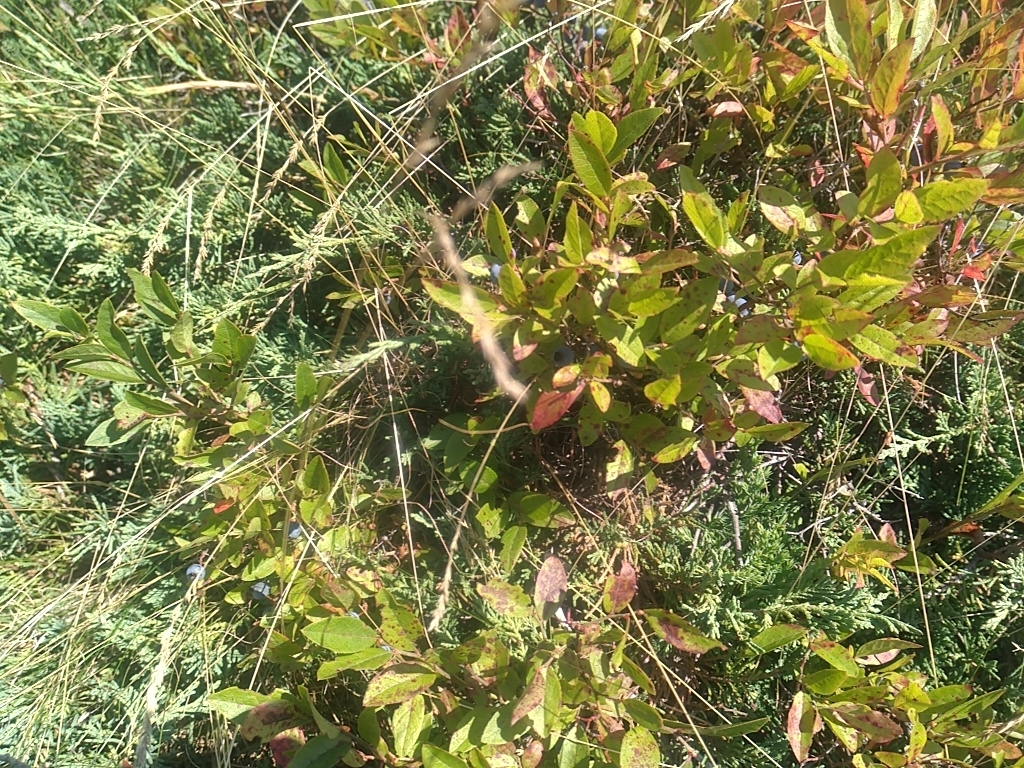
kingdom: Plantae
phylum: Tracheophyta
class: Magnoliopsida
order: Ericales
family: Ericaceae
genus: Vaccinium
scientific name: Vaccinium angustifolium
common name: Early lowbush blueberry
